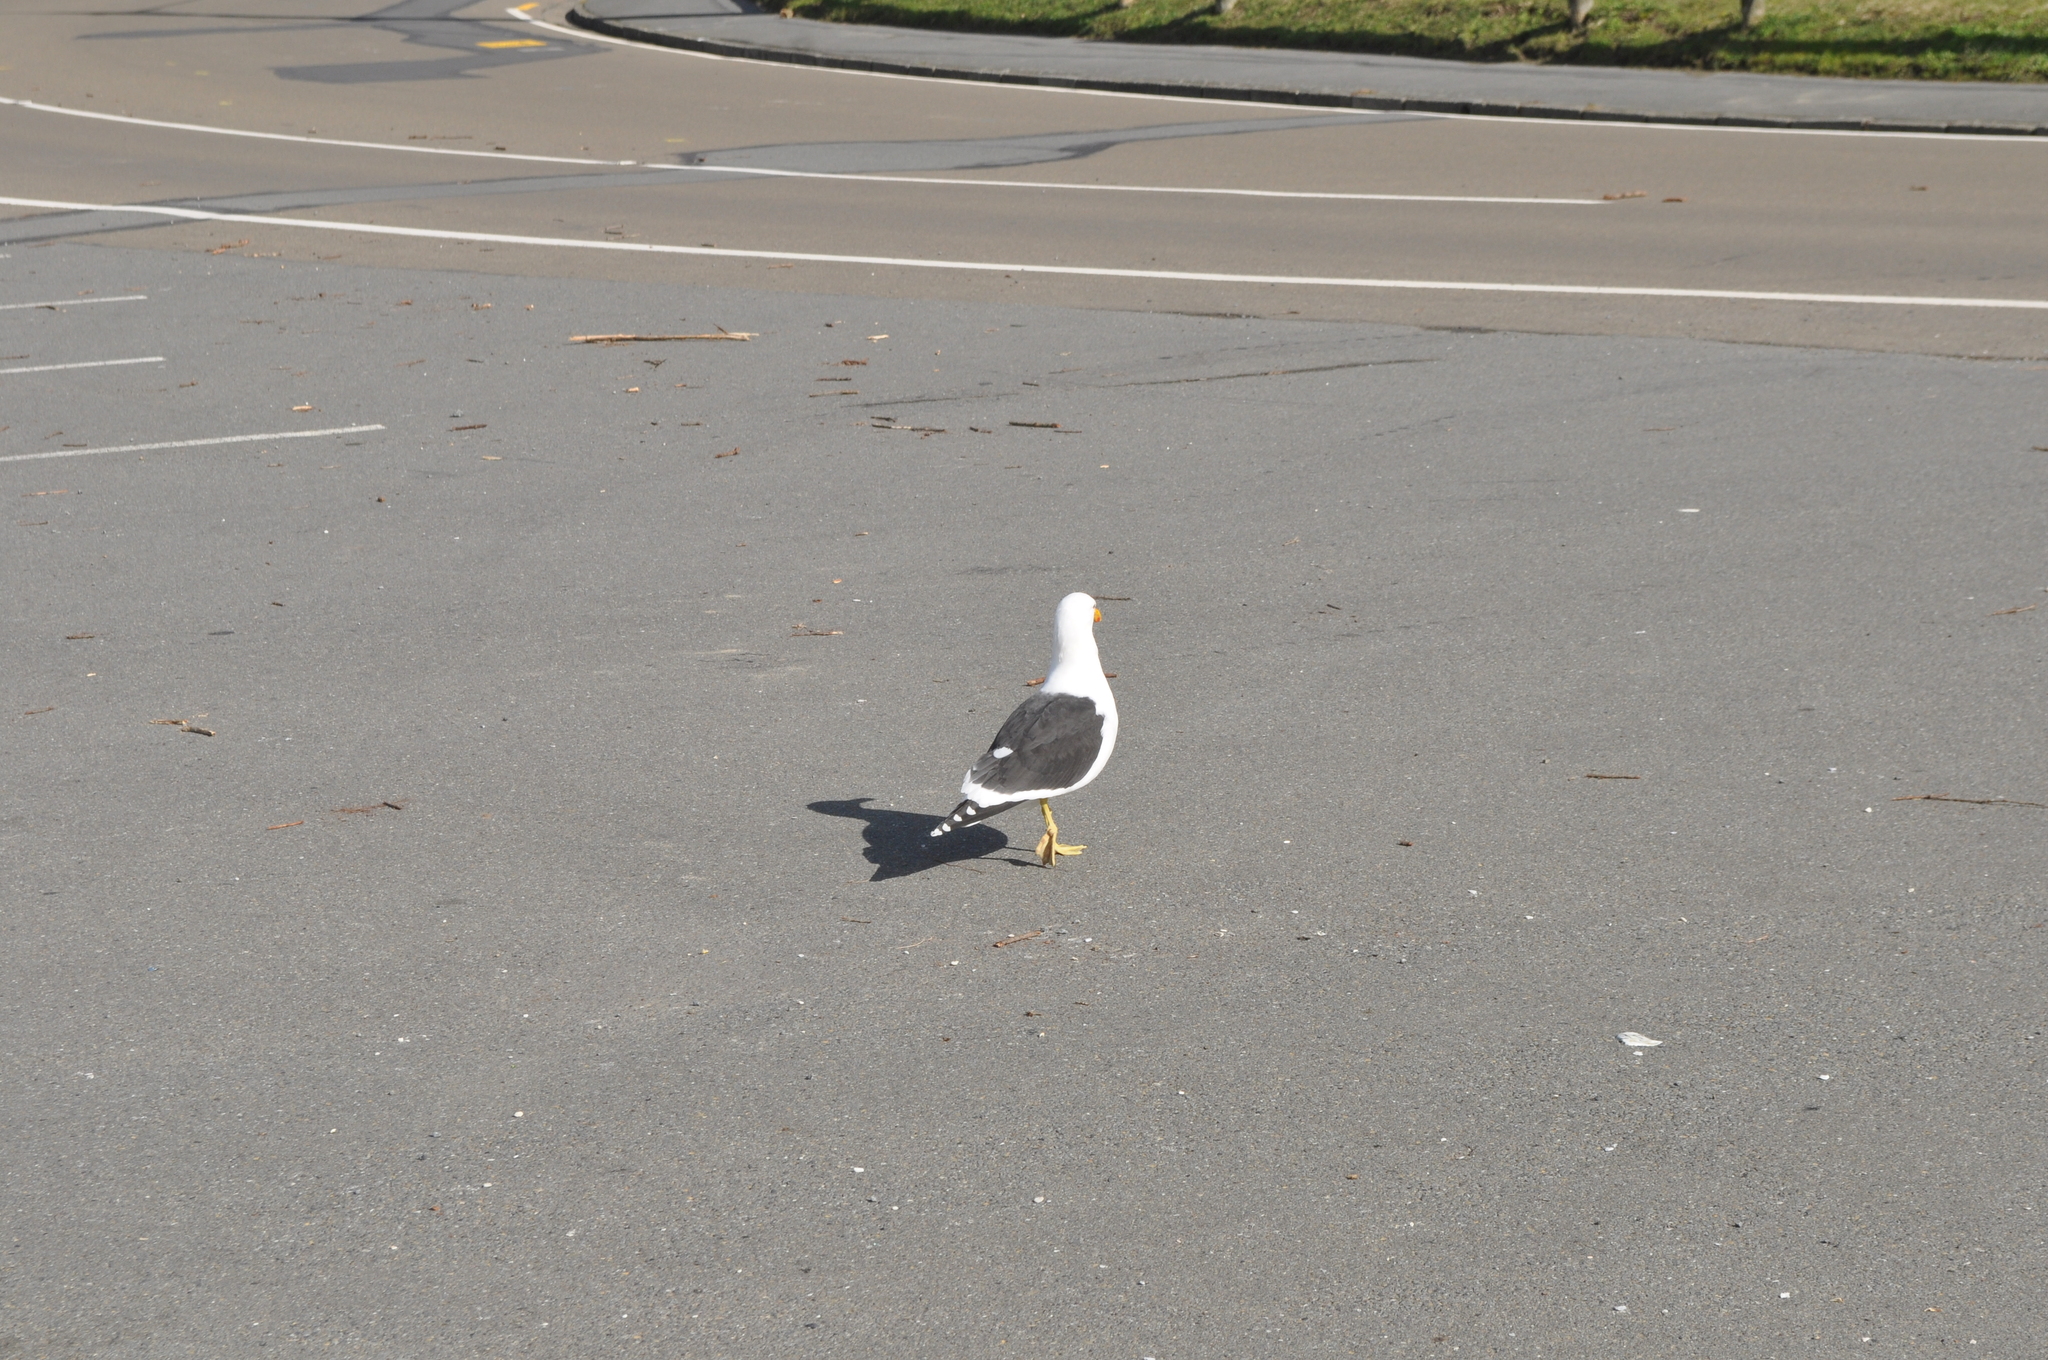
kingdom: Animalia
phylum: Chordata
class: Aves
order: Charadriiformes
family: Laridae
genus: Larus
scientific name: Larus dominicanus
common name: Kelp gull
